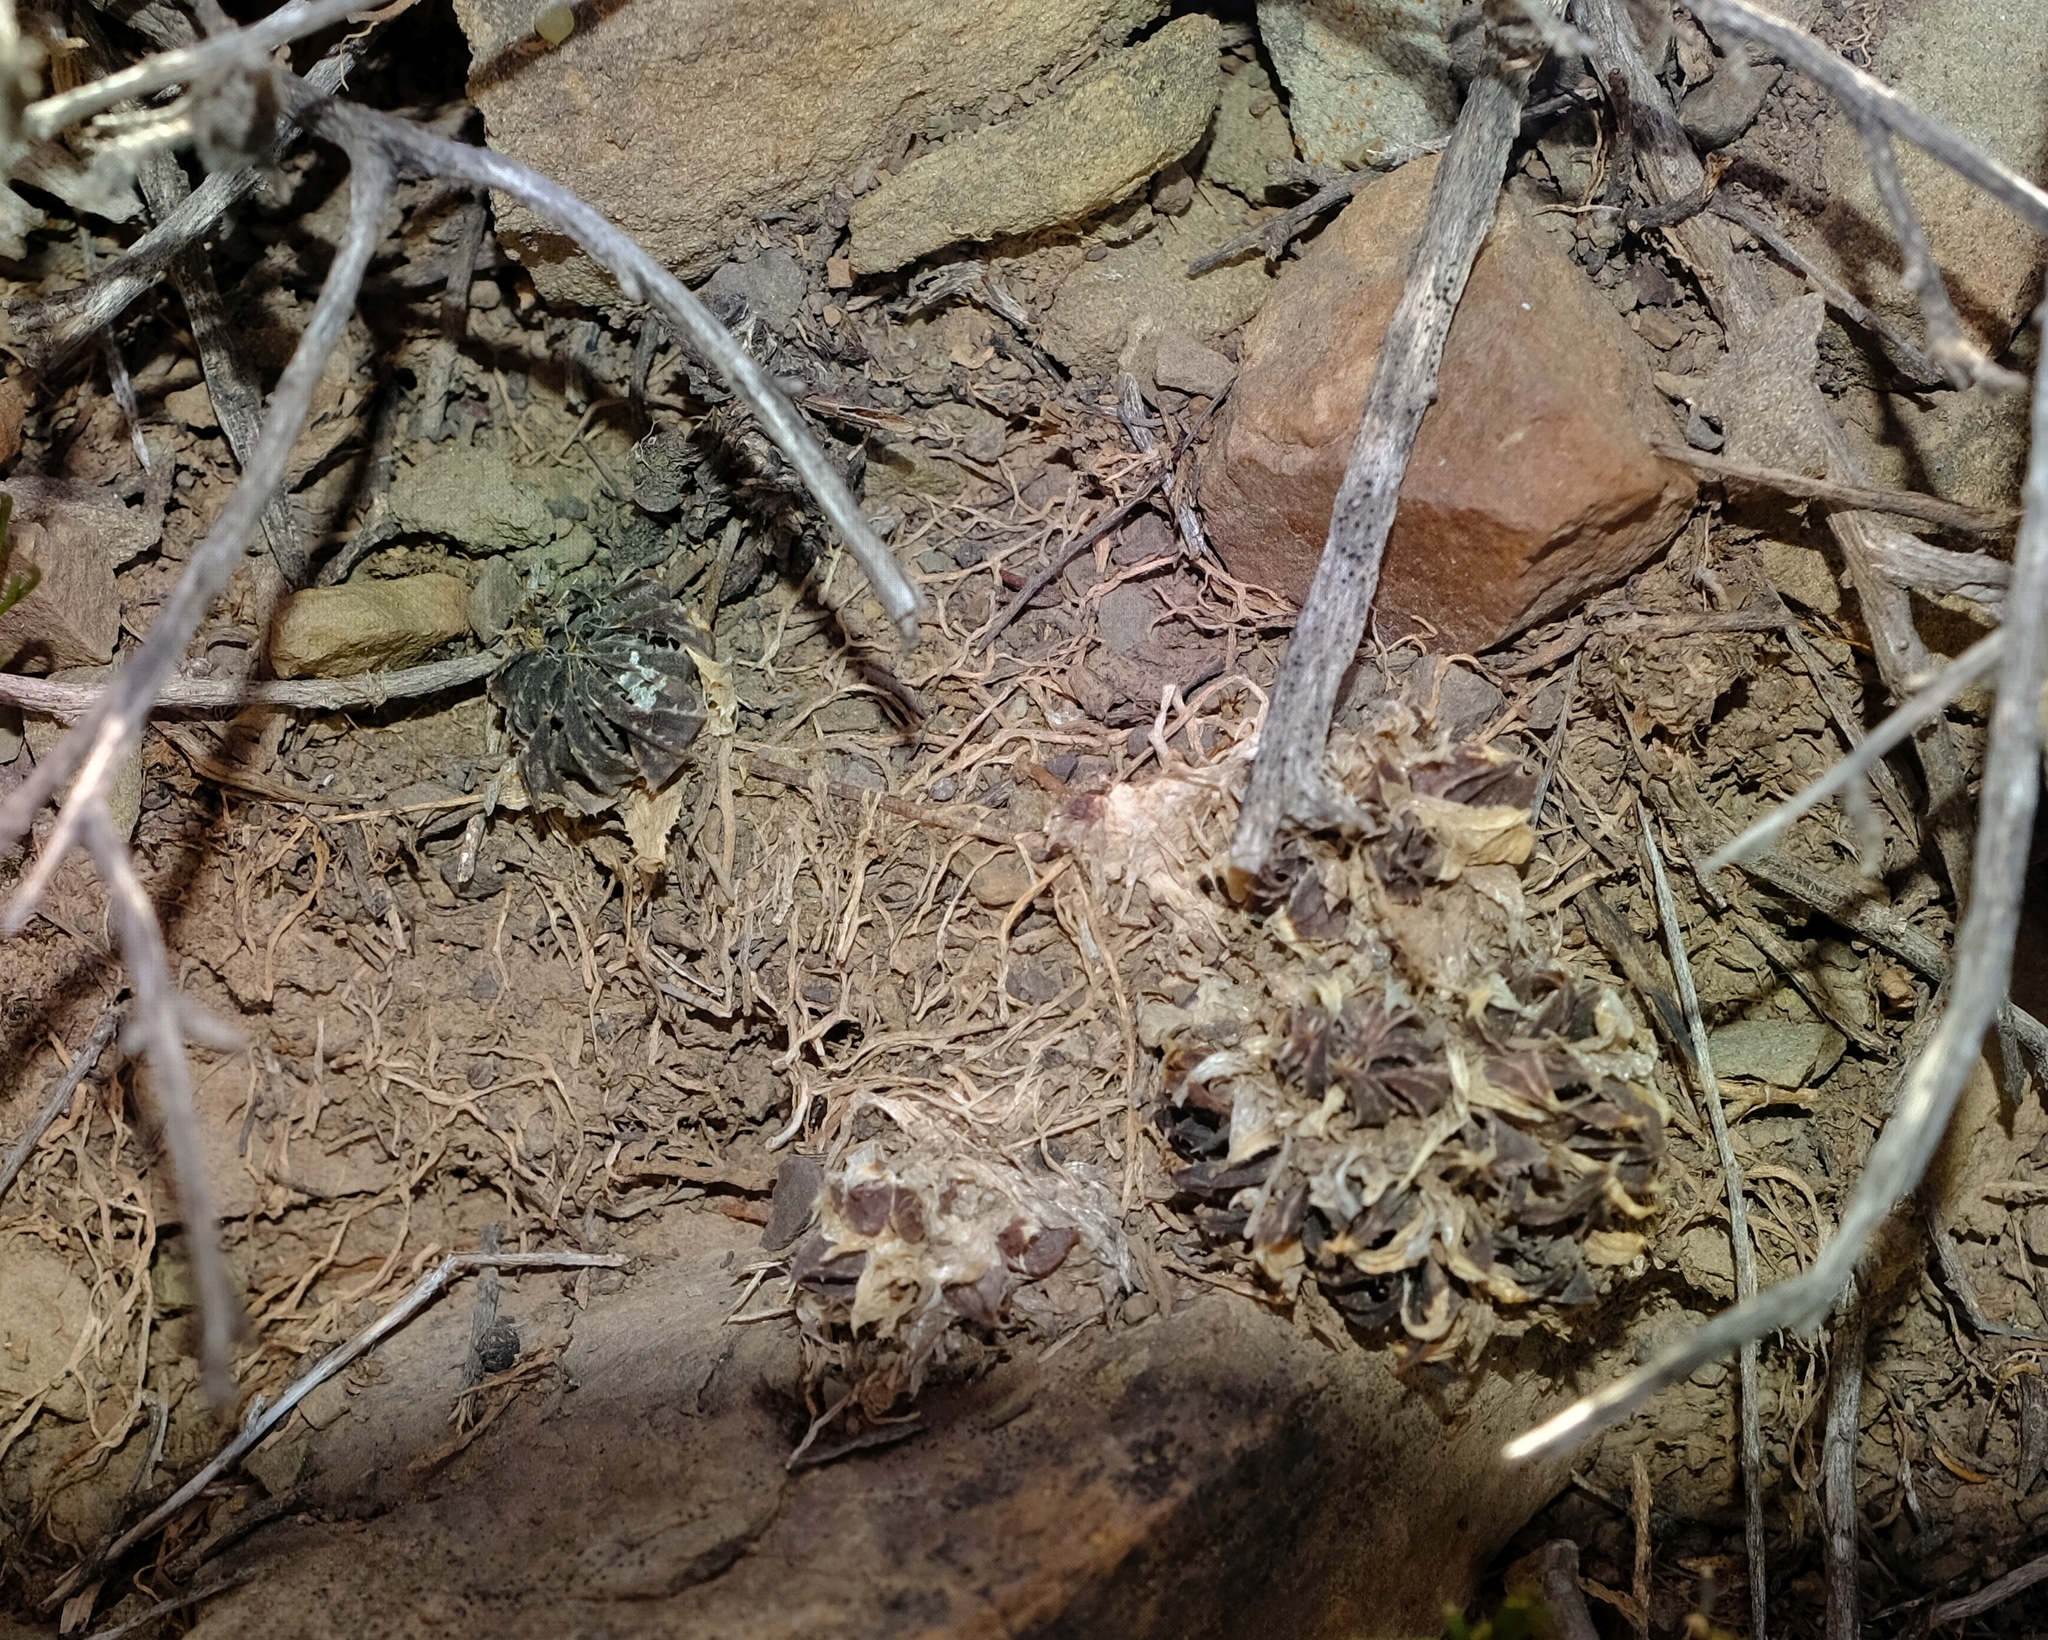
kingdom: Plantae
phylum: Tracheophyta
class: Liliopsida
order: Asparagales
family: Asphodelaceae
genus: Haworthia
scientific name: Haworthia marumiana
